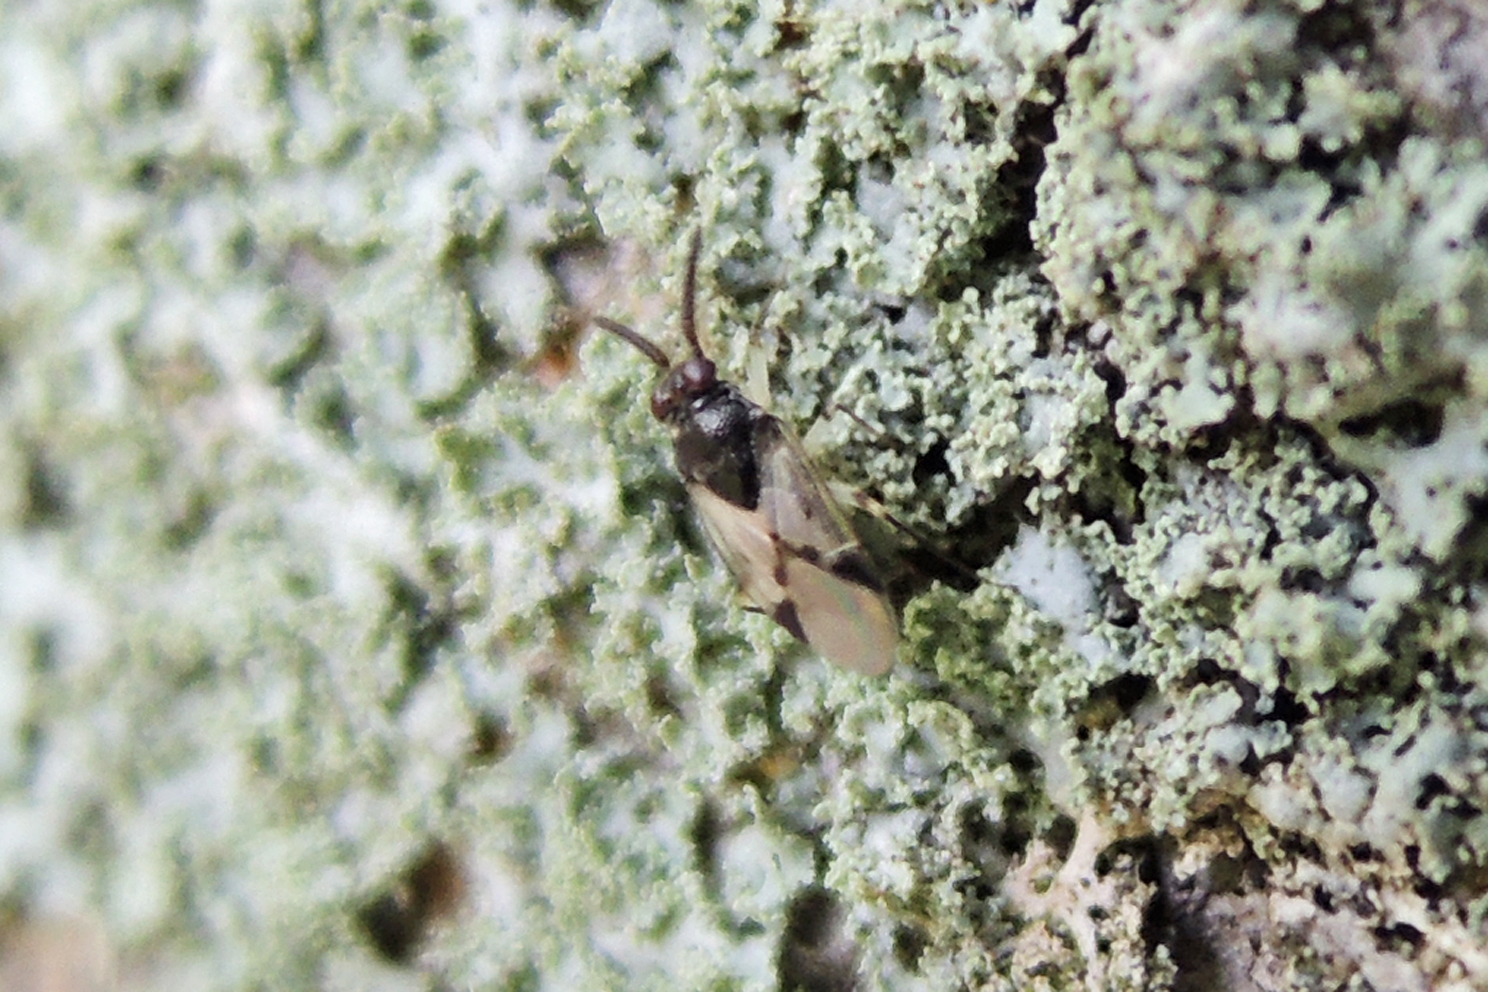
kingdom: Animalia
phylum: Arthropoda
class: Insecta
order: Hemiptera
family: Miridae
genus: Corticoris
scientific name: Corticoris signatus
